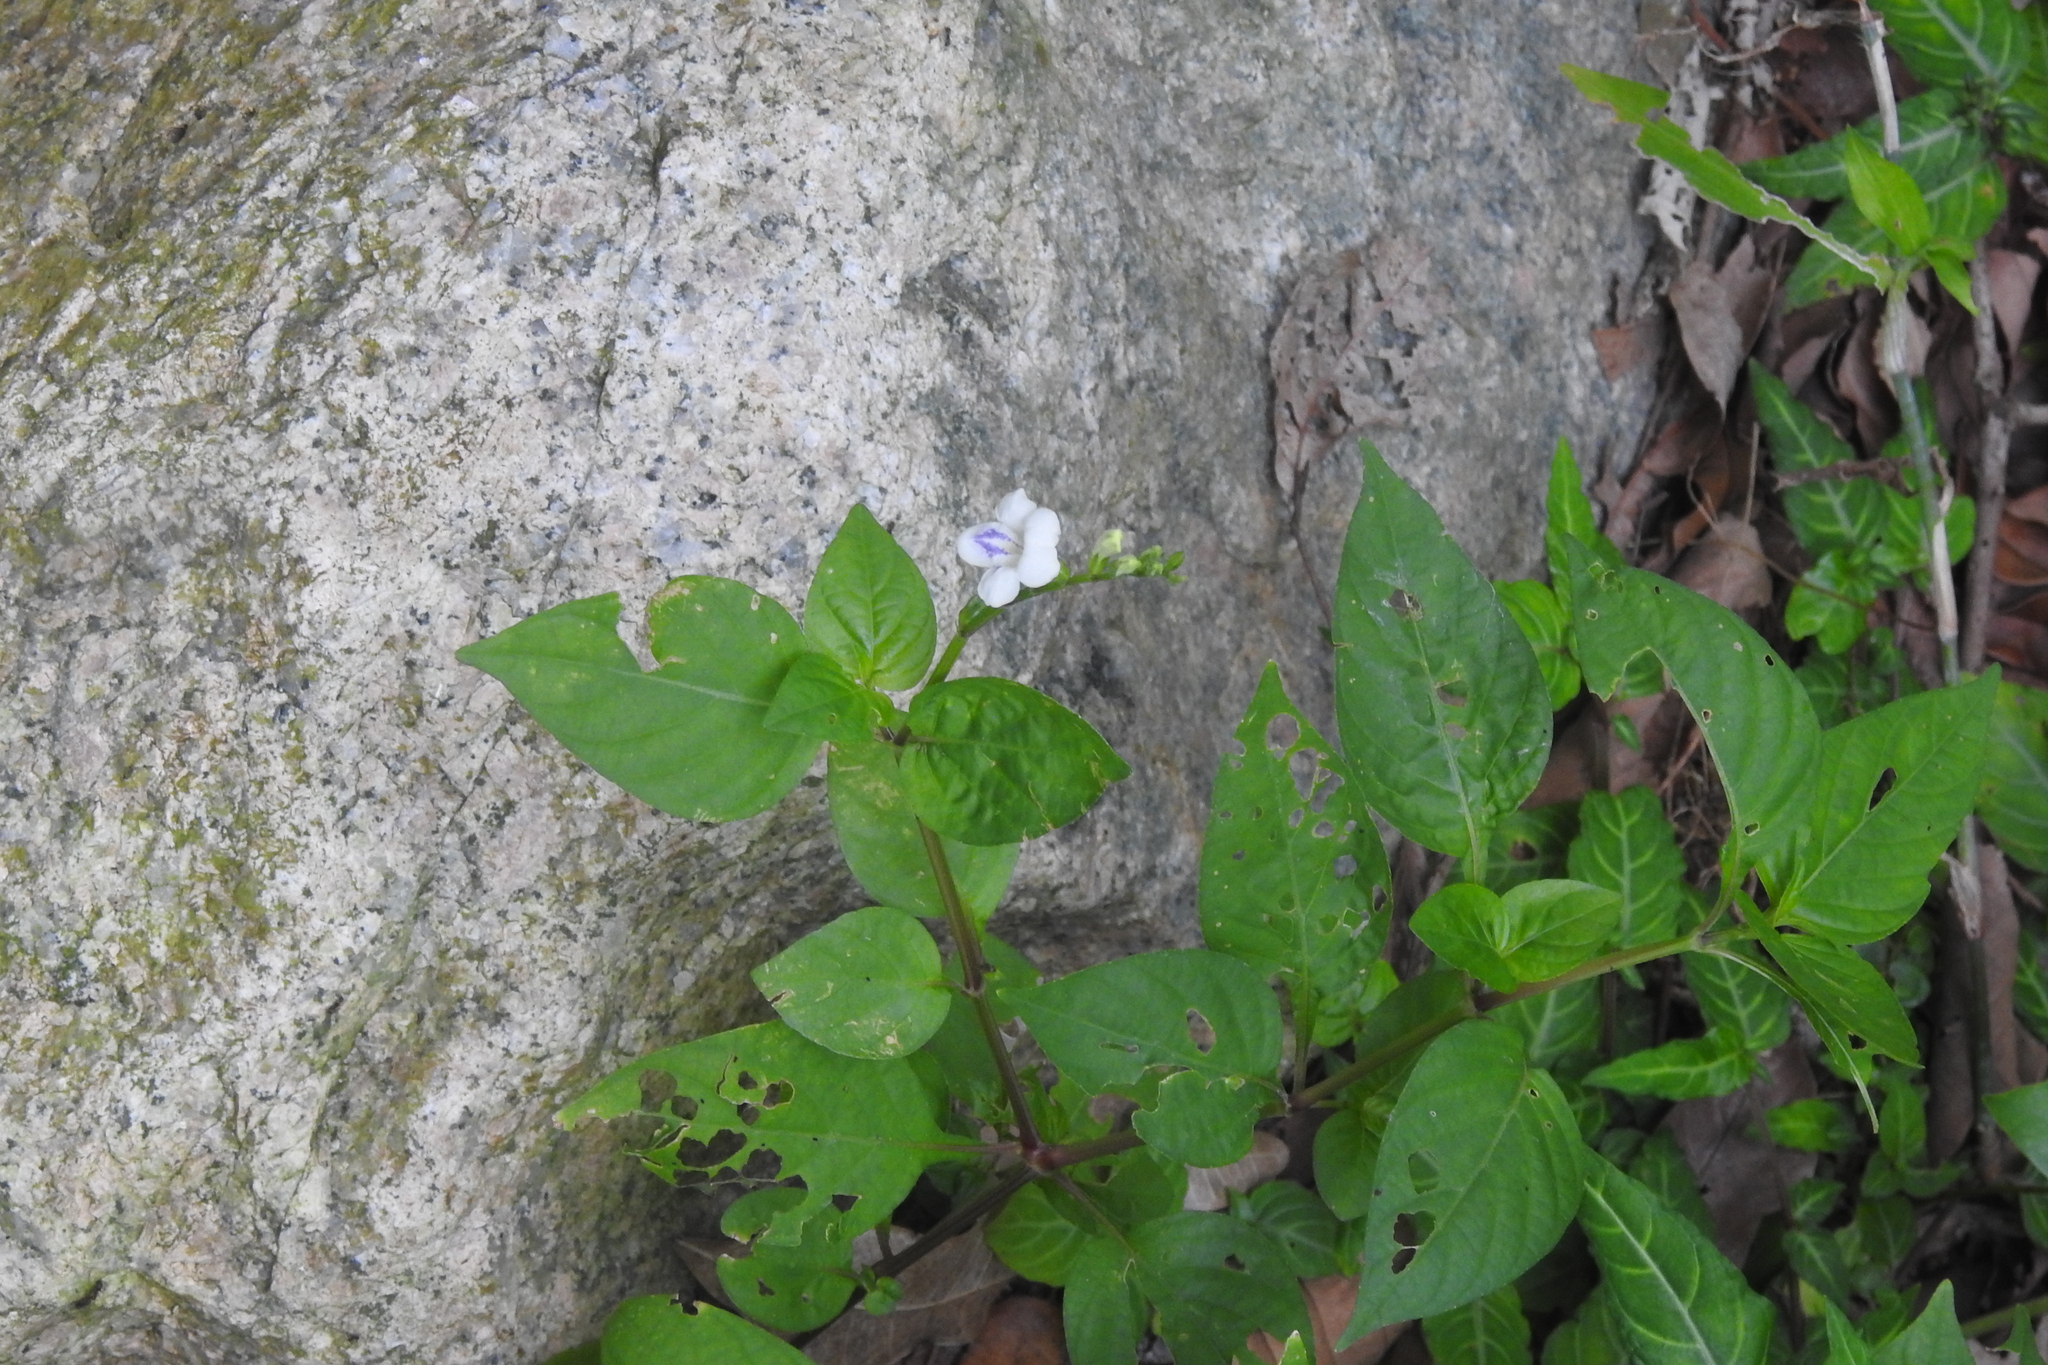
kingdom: Plantae
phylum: Tracheophyta
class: Magnoliopsida
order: Lamiales
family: Acanthaceae
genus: Asystasia
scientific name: Asystasia intrusa
